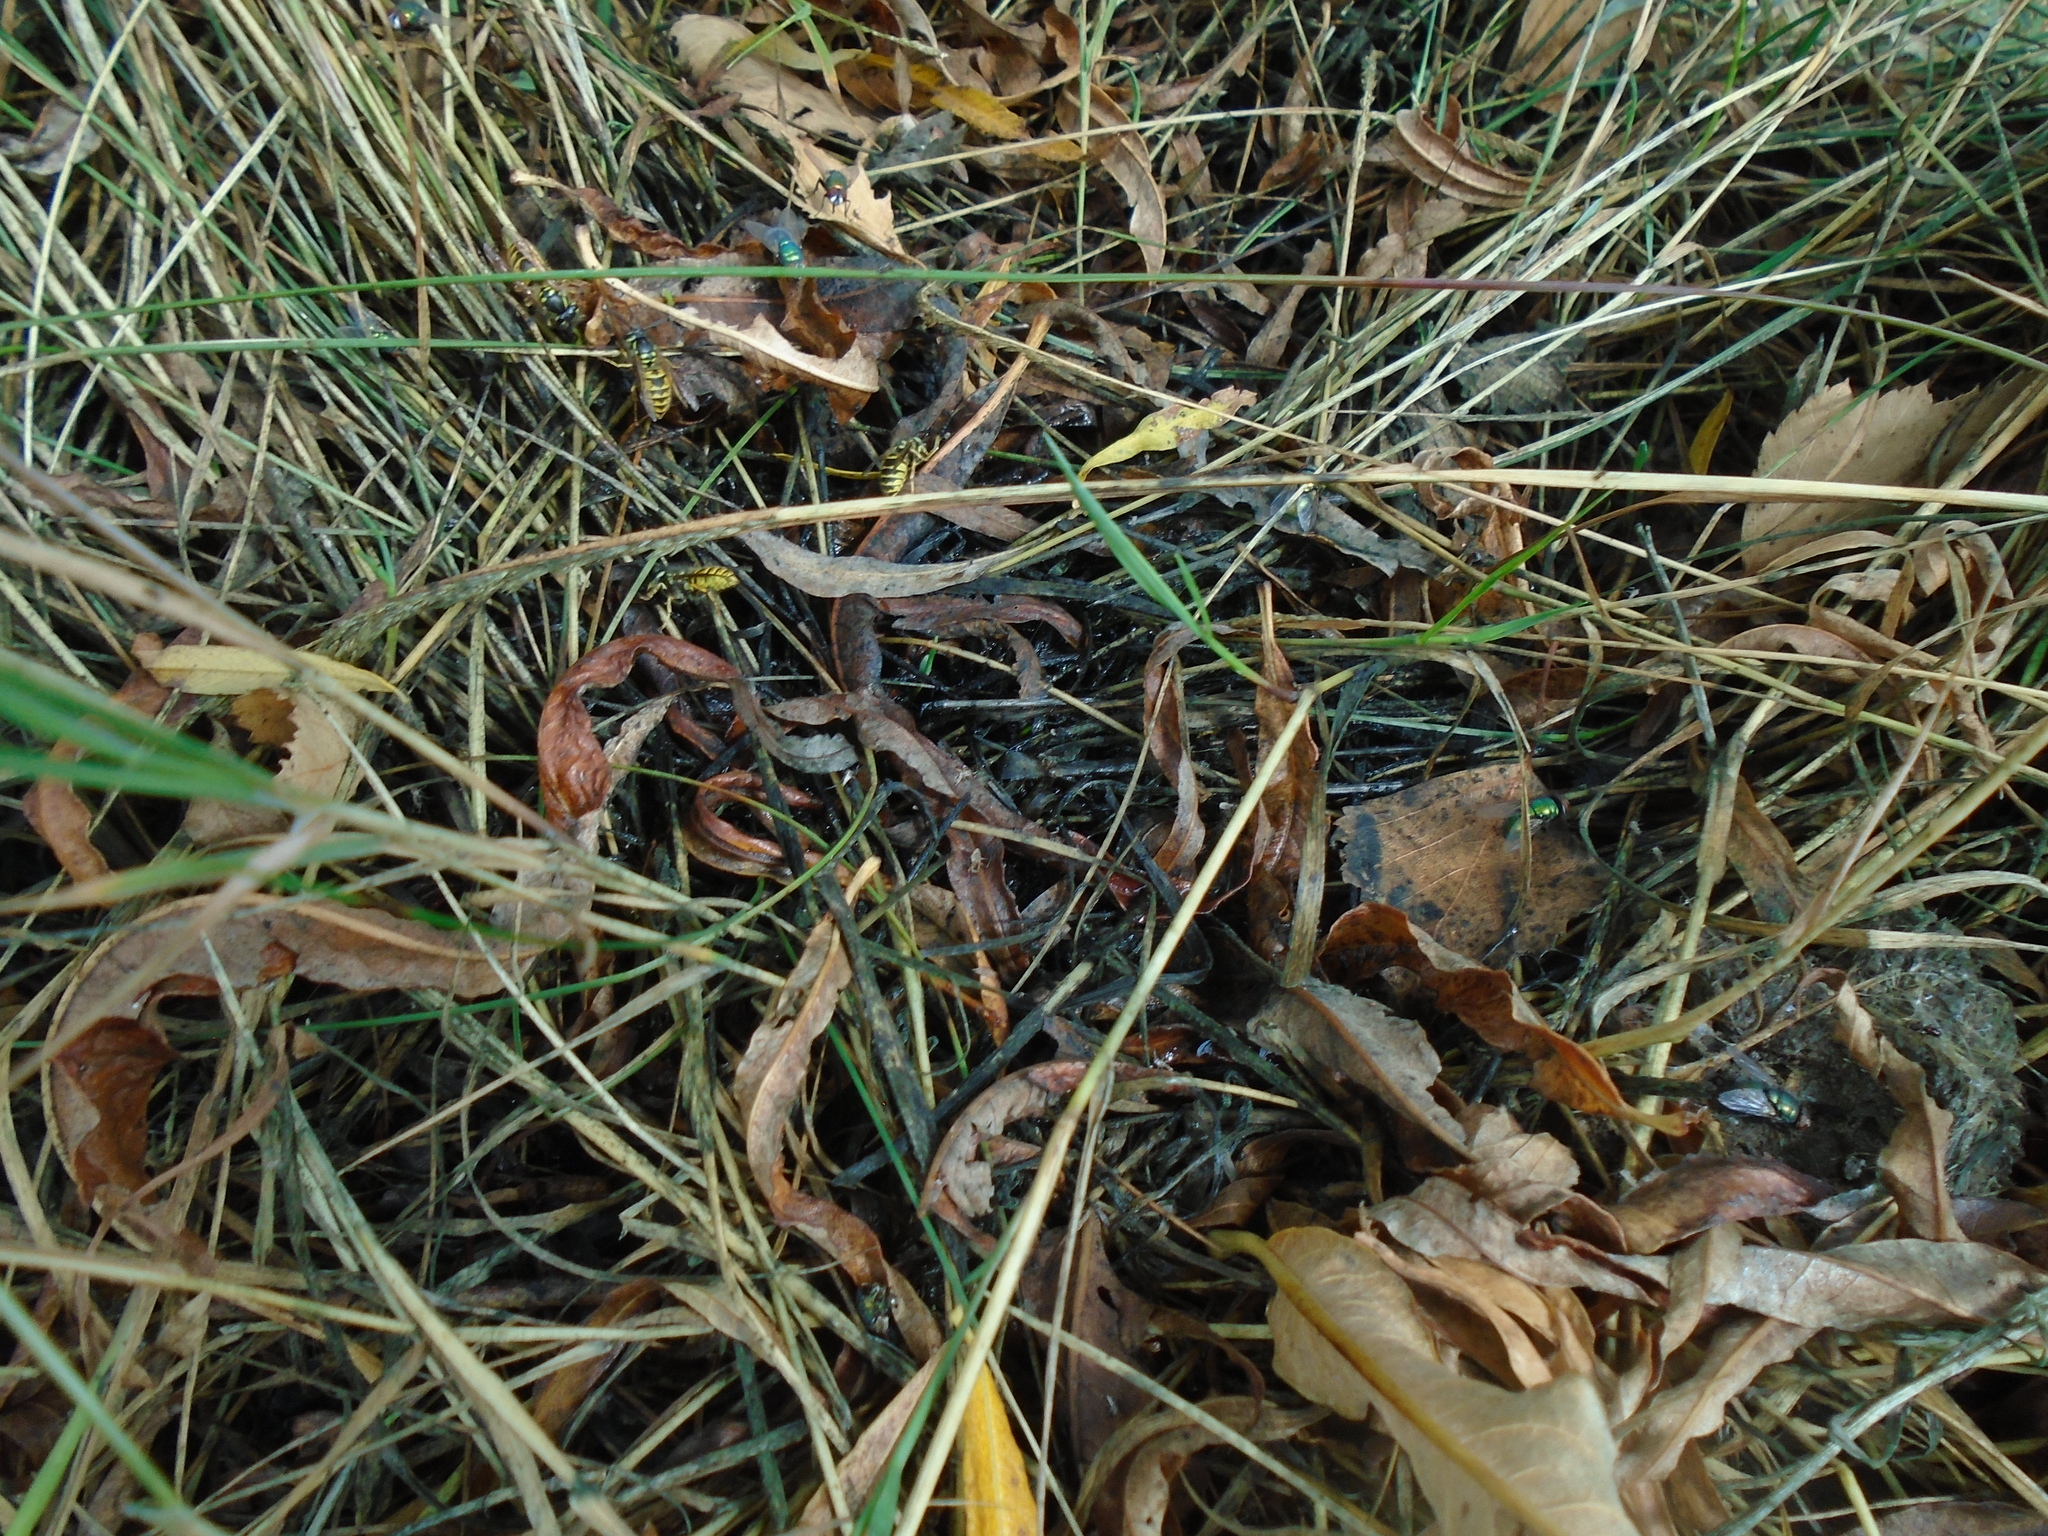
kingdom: Animalia
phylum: Arthropoda
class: Insecta
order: Hymenoptera
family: Vespidae
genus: Vespula
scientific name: Vespula vulgaris
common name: Common wasp
